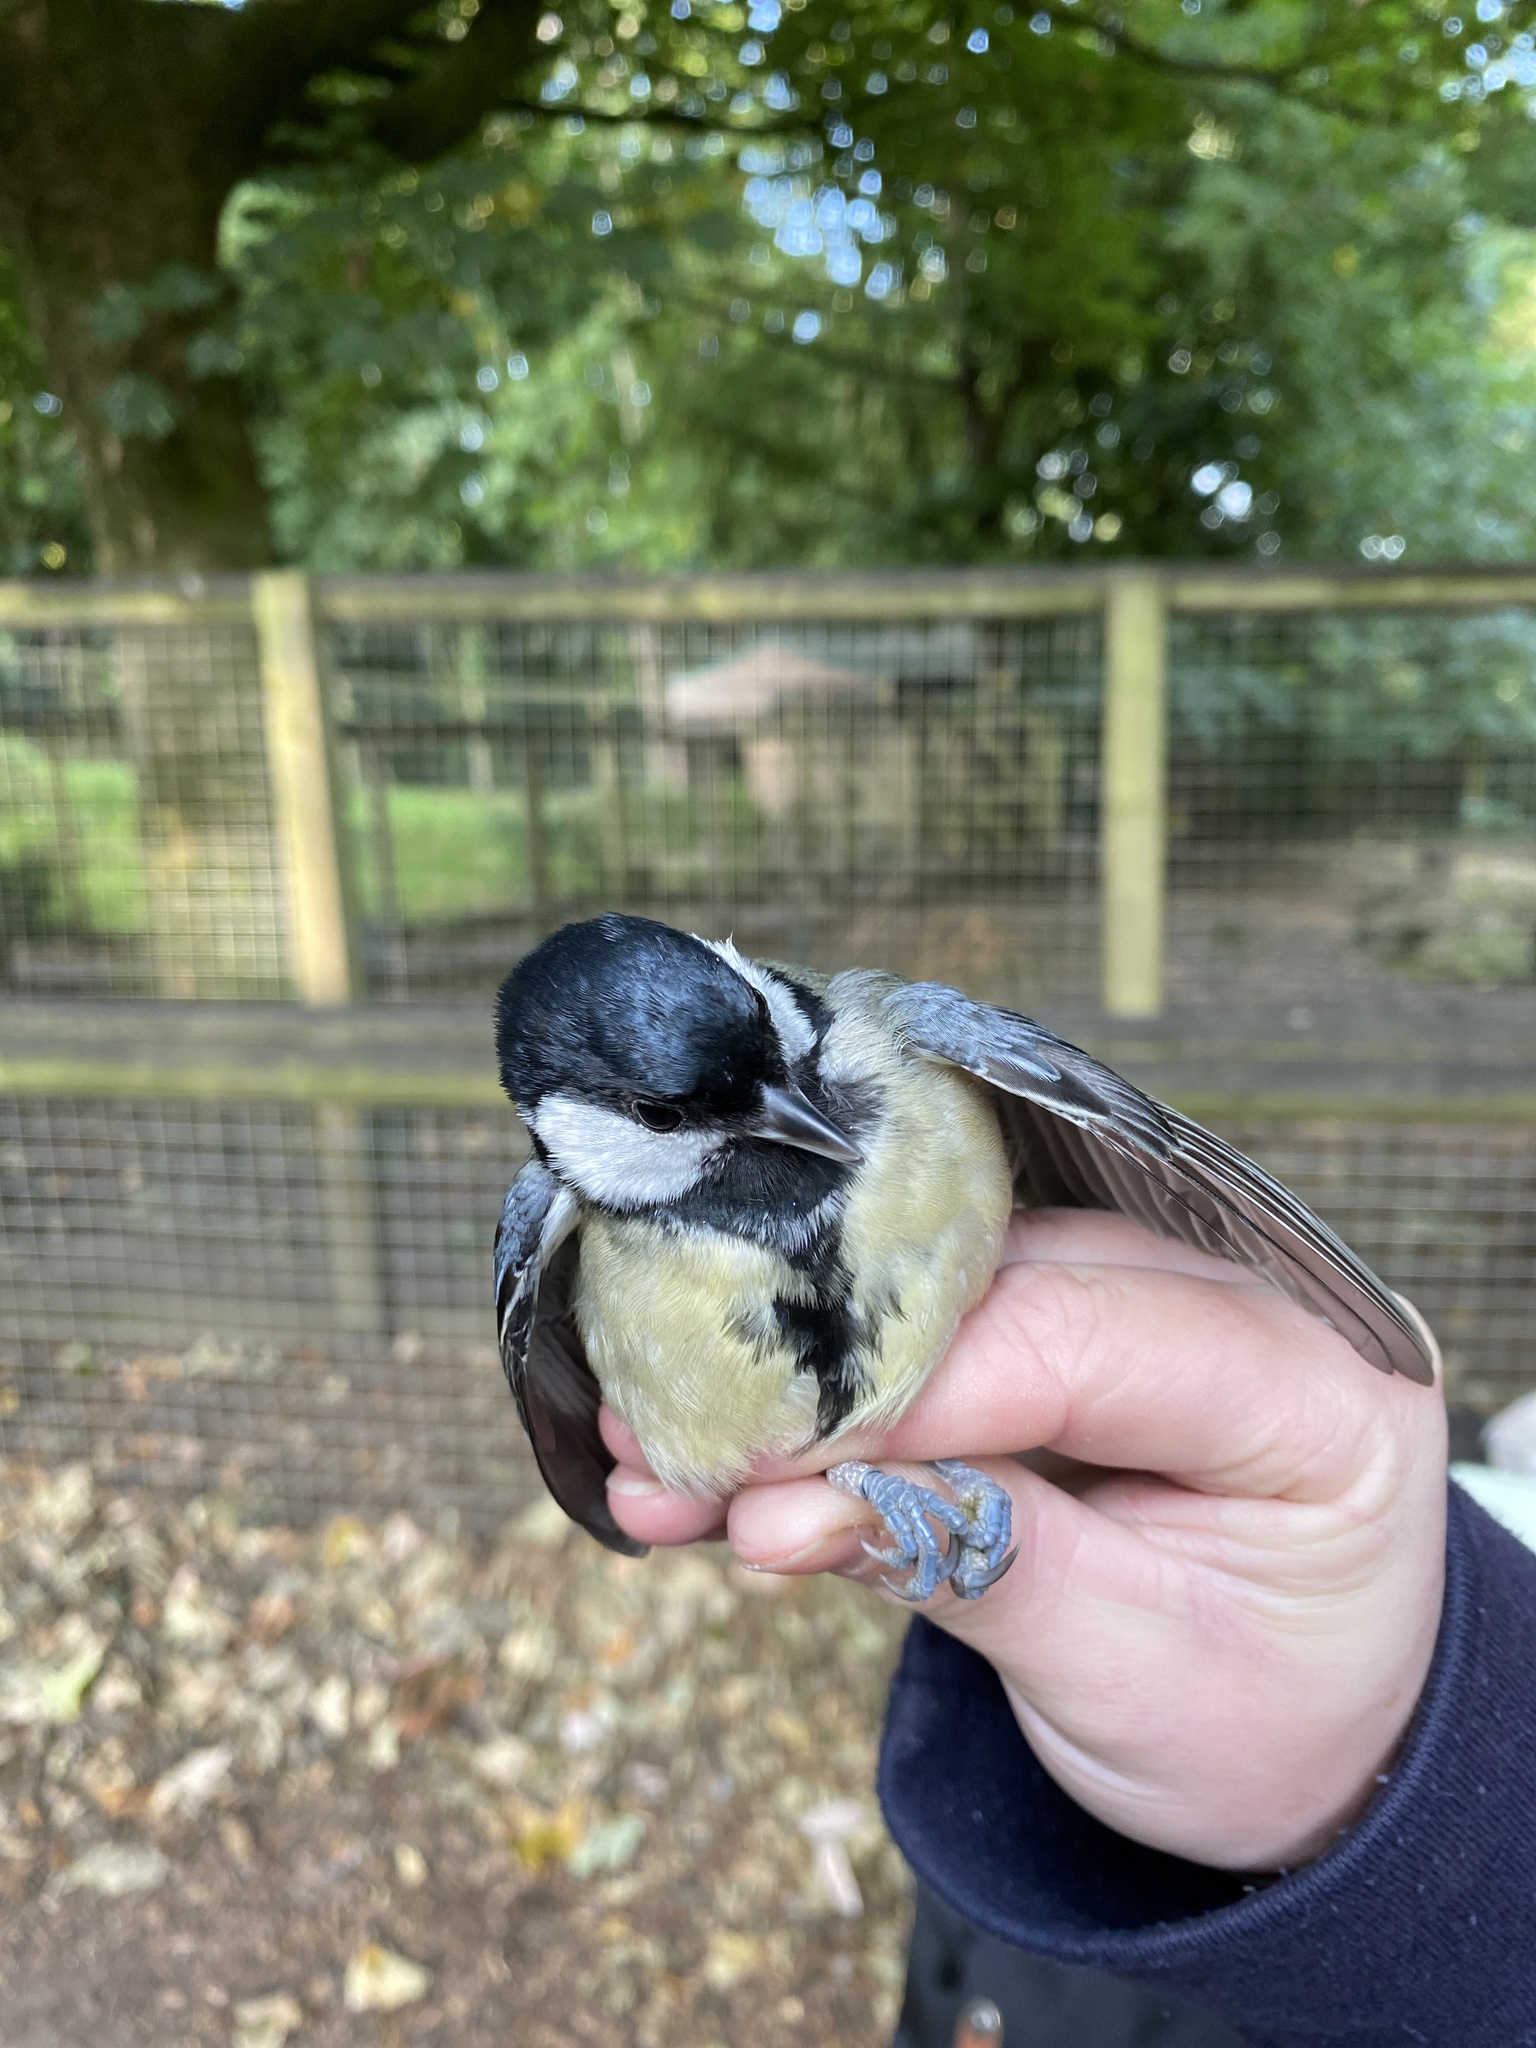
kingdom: Animalia
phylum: Chordata
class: Aves
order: Passeriformes
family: Paridae
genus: Parus
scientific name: Parus major
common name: Great tit
